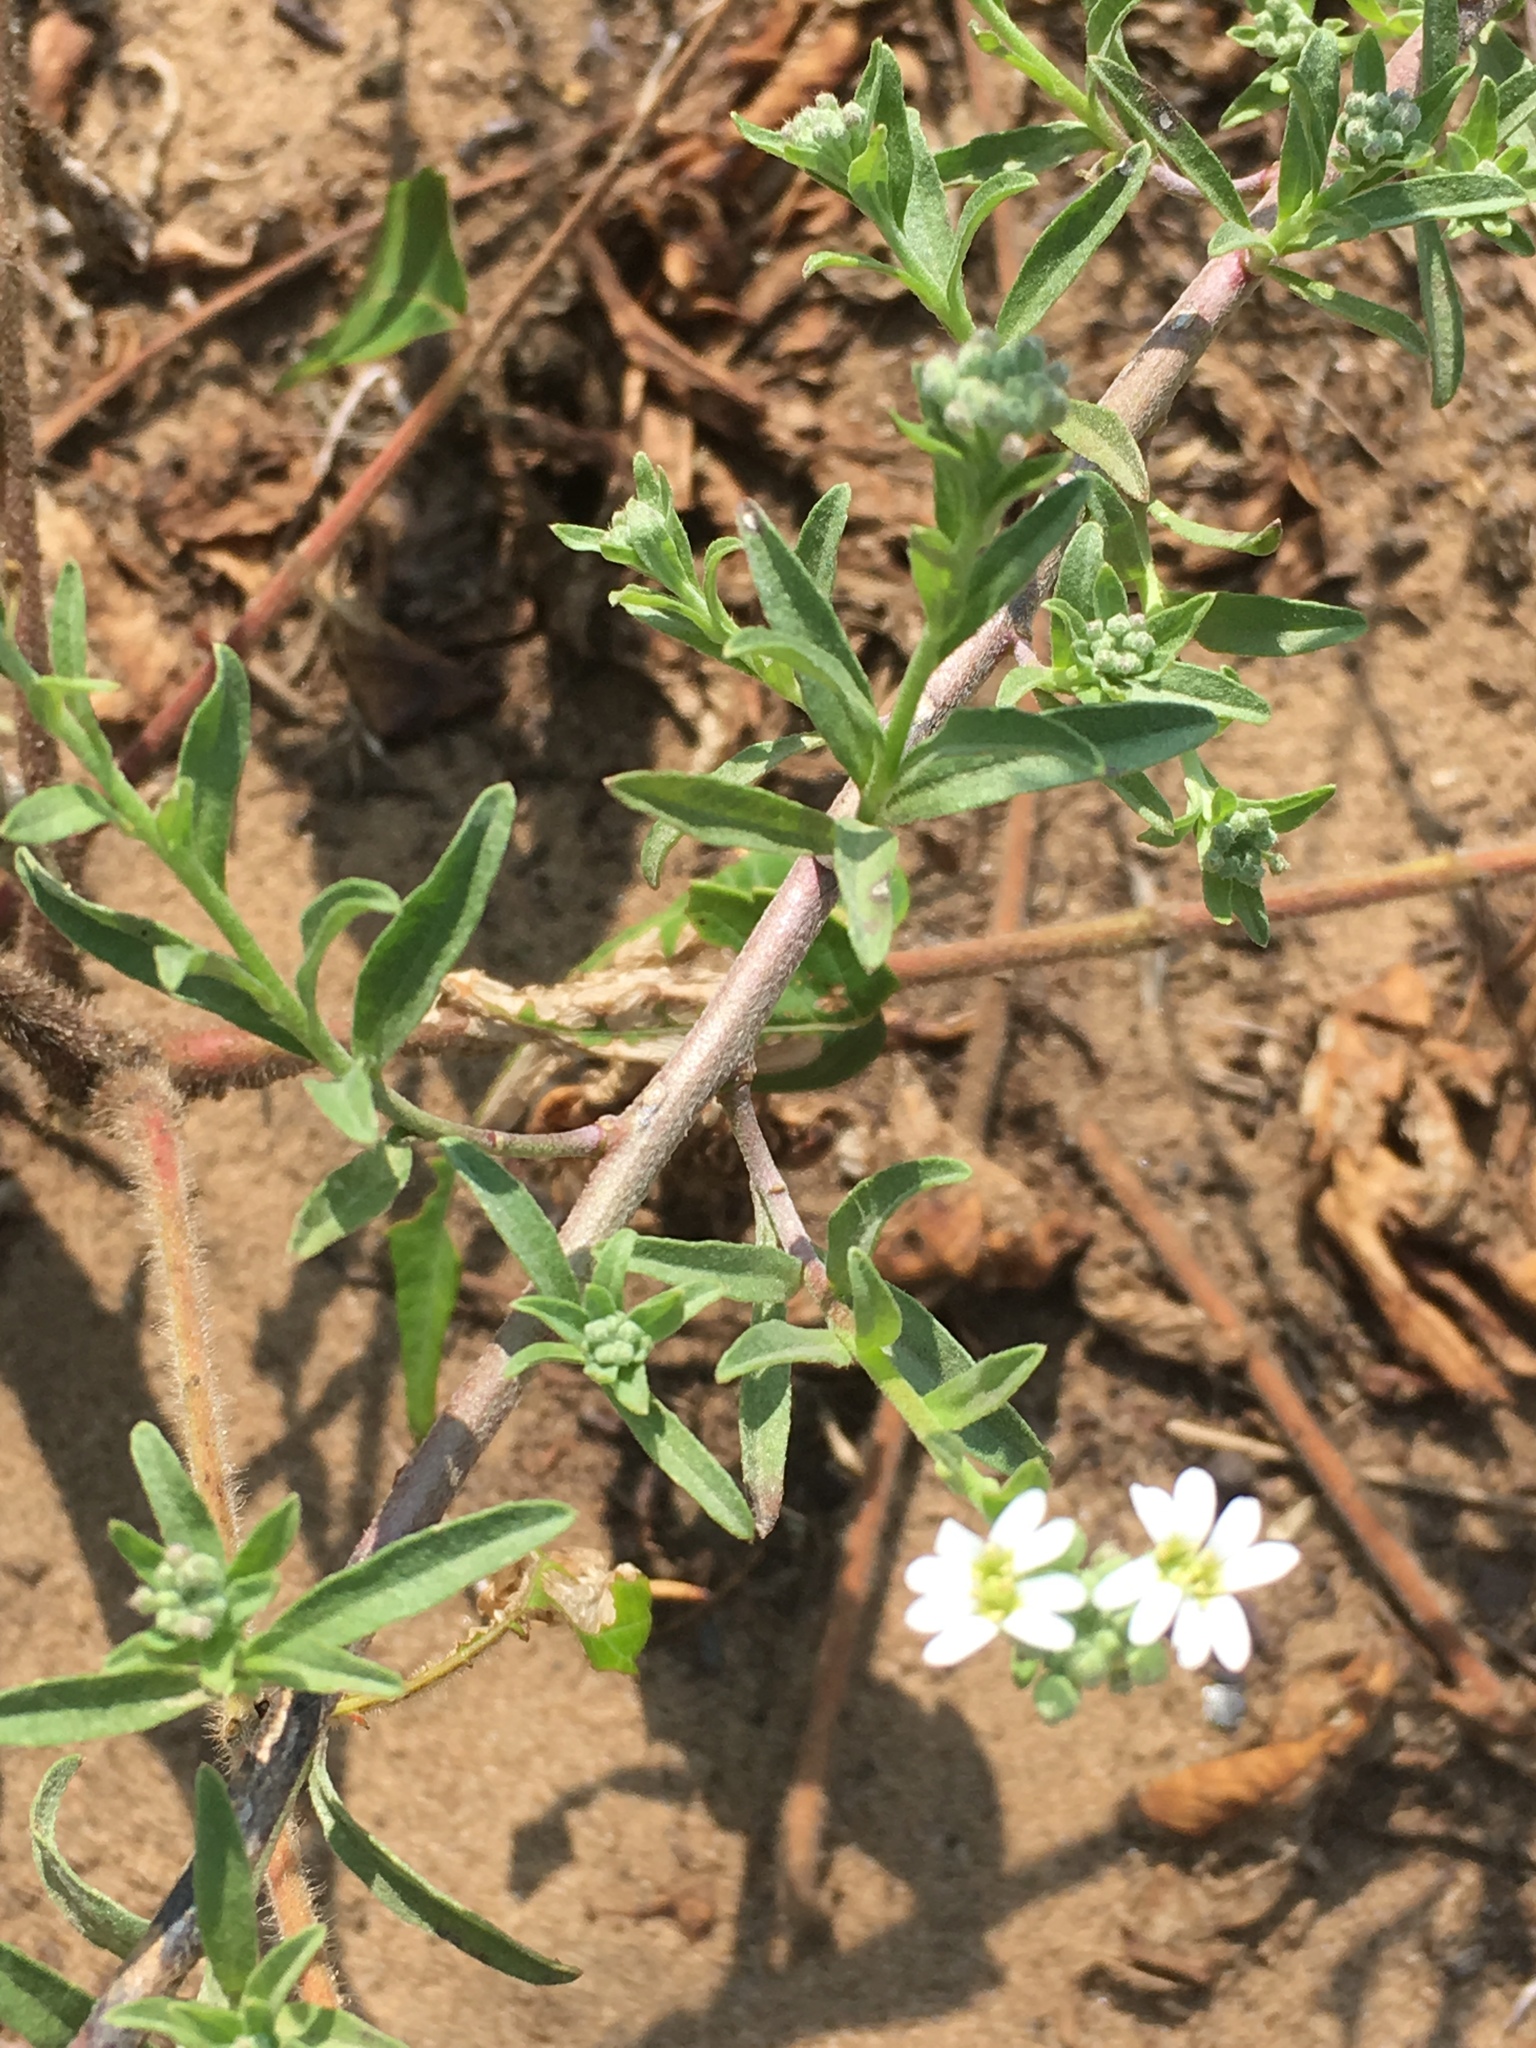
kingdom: Plantae
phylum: Tracheophyta
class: Magnoliopsida
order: Brassicales
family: Brassicaceae
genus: Berteroa
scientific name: Berteroa incana
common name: Hoary alison
